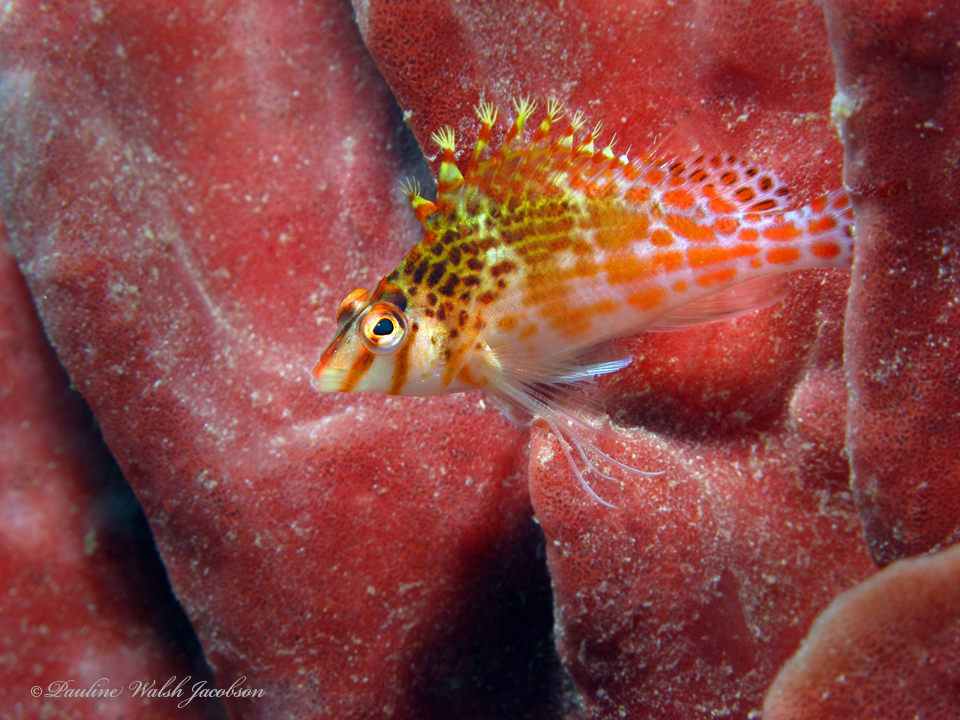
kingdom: Animalia
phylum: Chordata
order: Perciformes
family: Cirrhitidae
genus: Cirrhitichthys
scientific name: Cirrhitichthys falco
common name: Coral hawkfish
